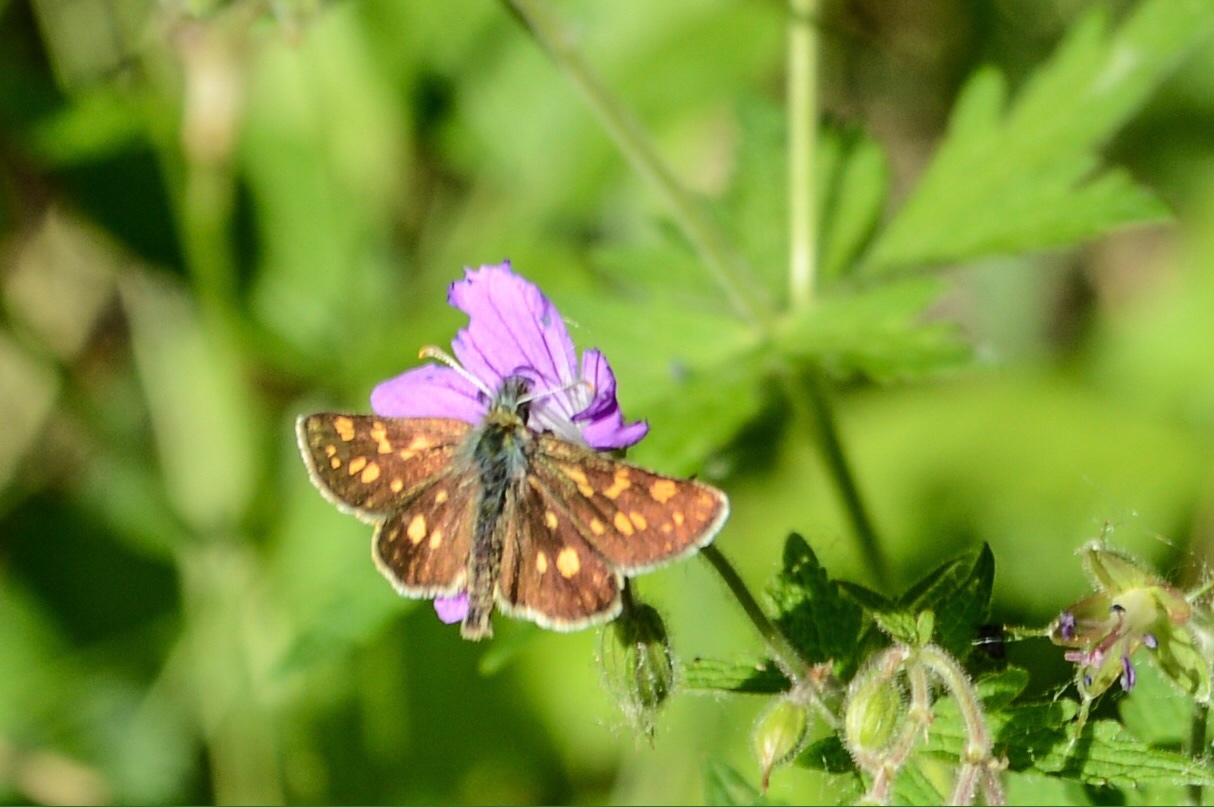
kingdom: Animalia
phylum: Arthropoda
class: Insecta
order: Lepidoptera
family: Hesperiidae
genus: Carterocephalus
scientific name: Carterocephalus palaemon
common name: Chequered skipper
